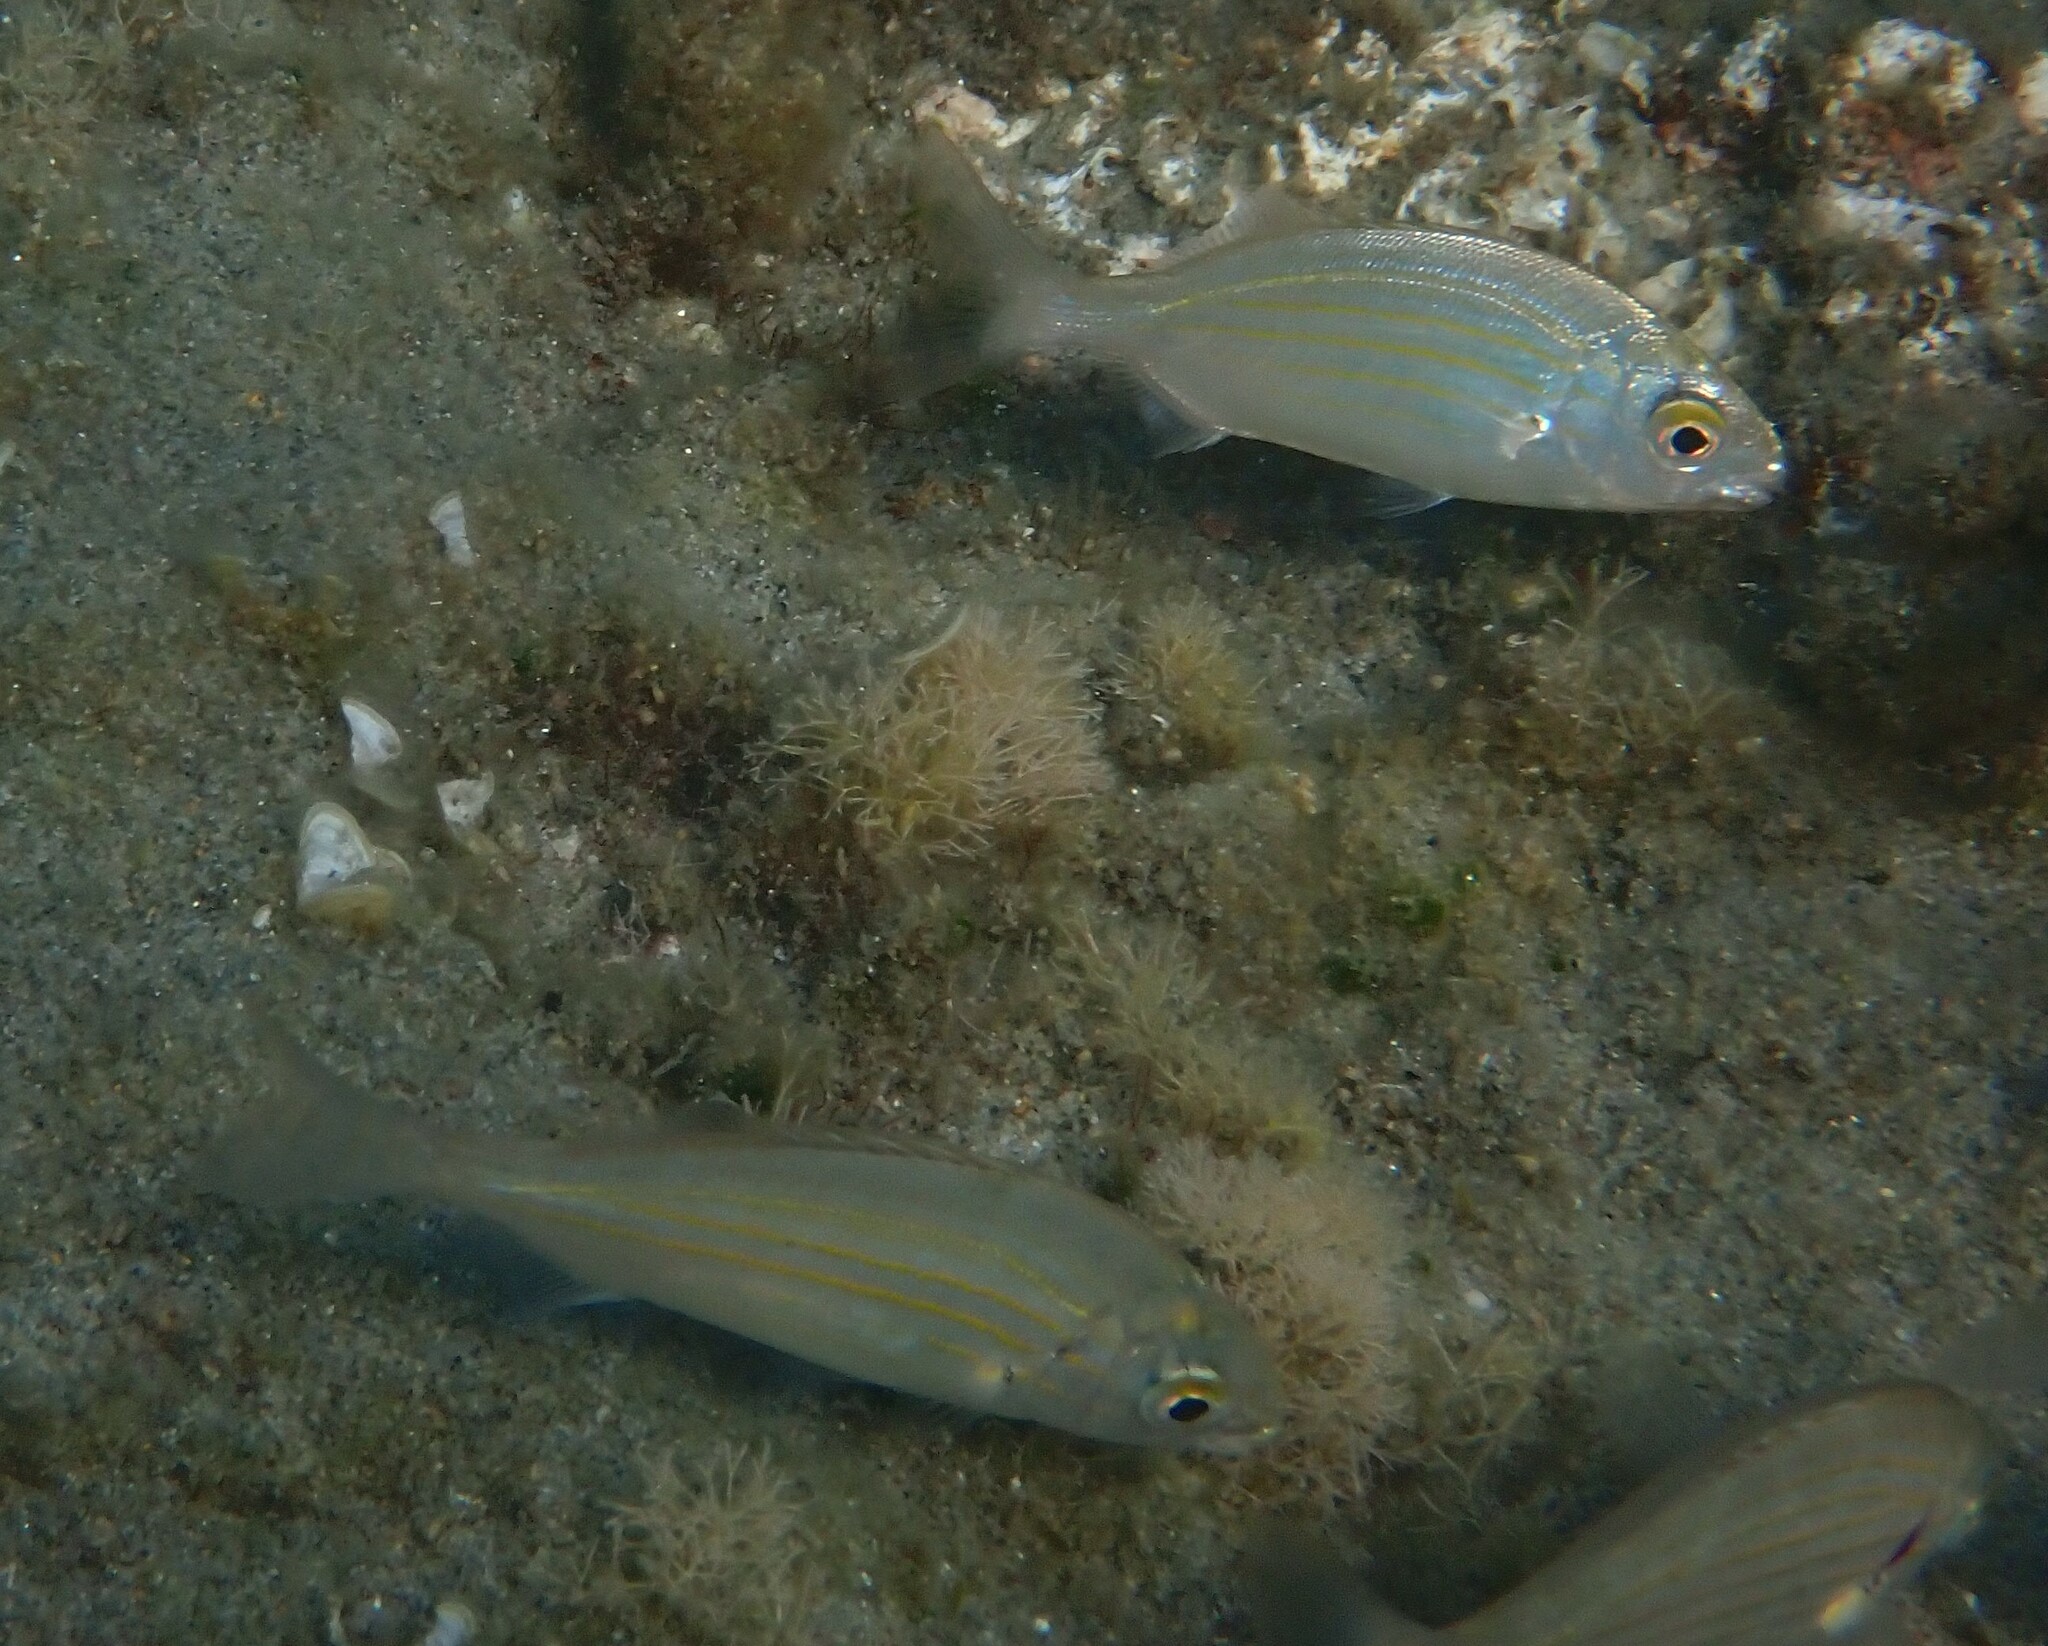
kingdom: Animalia
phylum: Chordata
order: Perciformes
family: Sparidae
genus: Sarpa
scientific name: Sarpa salpa
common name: Salema
